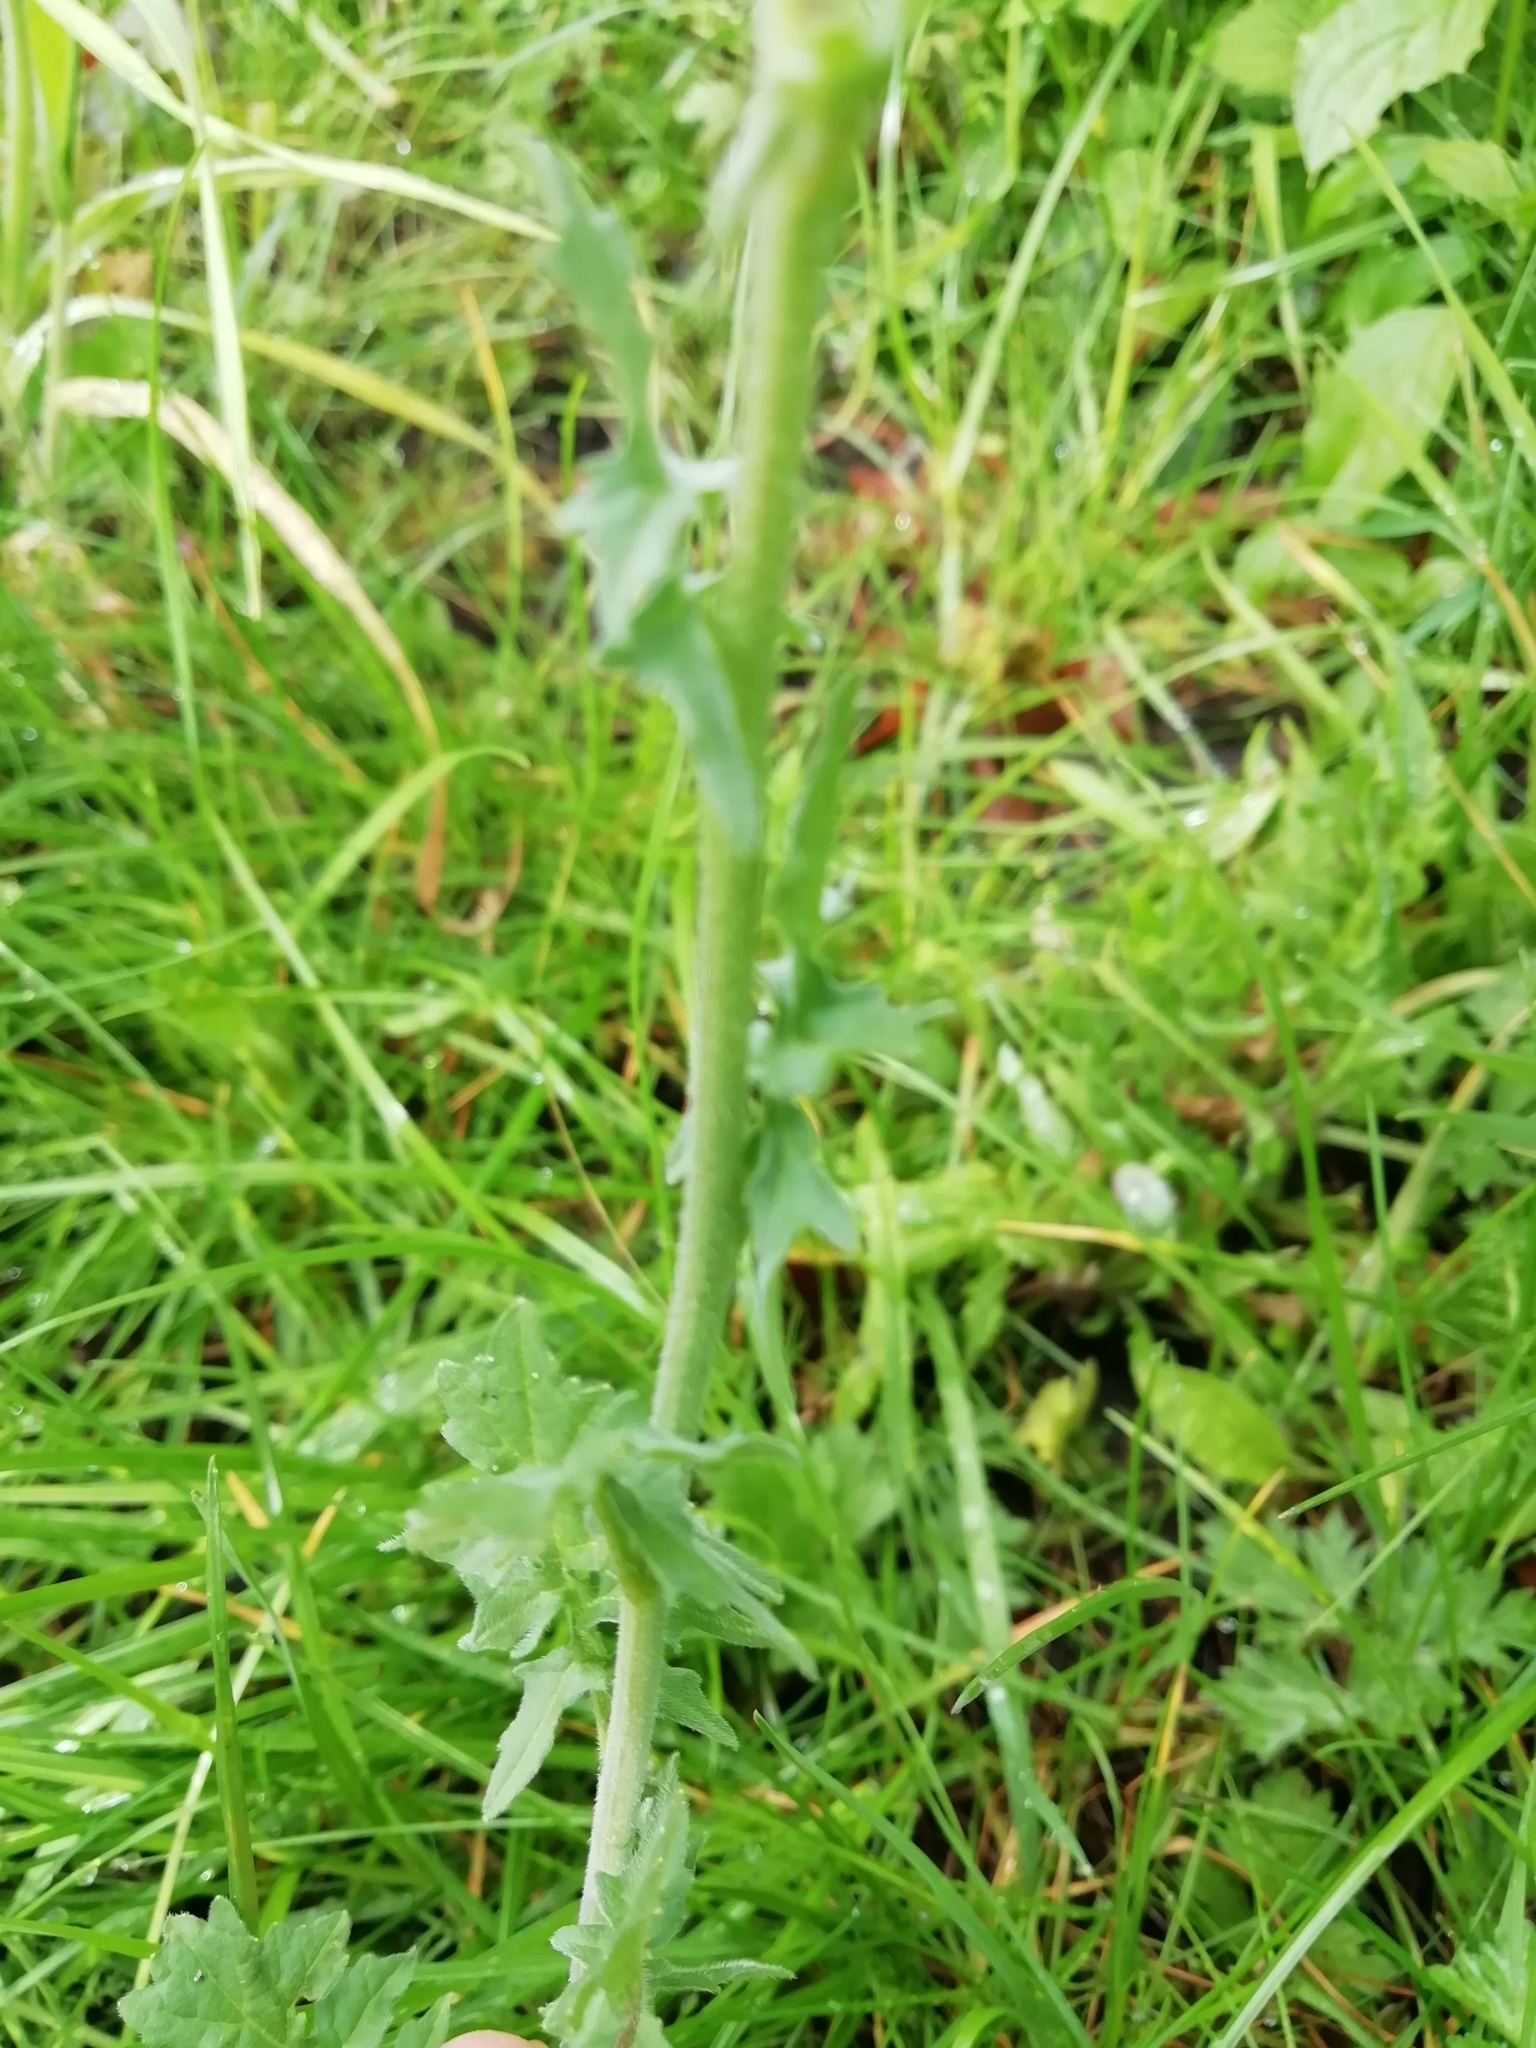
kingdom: Plantae
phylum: Tracheophyta
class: Magnoliopsida
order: Brassicales
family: Brassicaceae
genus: Sisymbrium
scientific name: Sisymbrium officinale
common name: Hedge mustard
